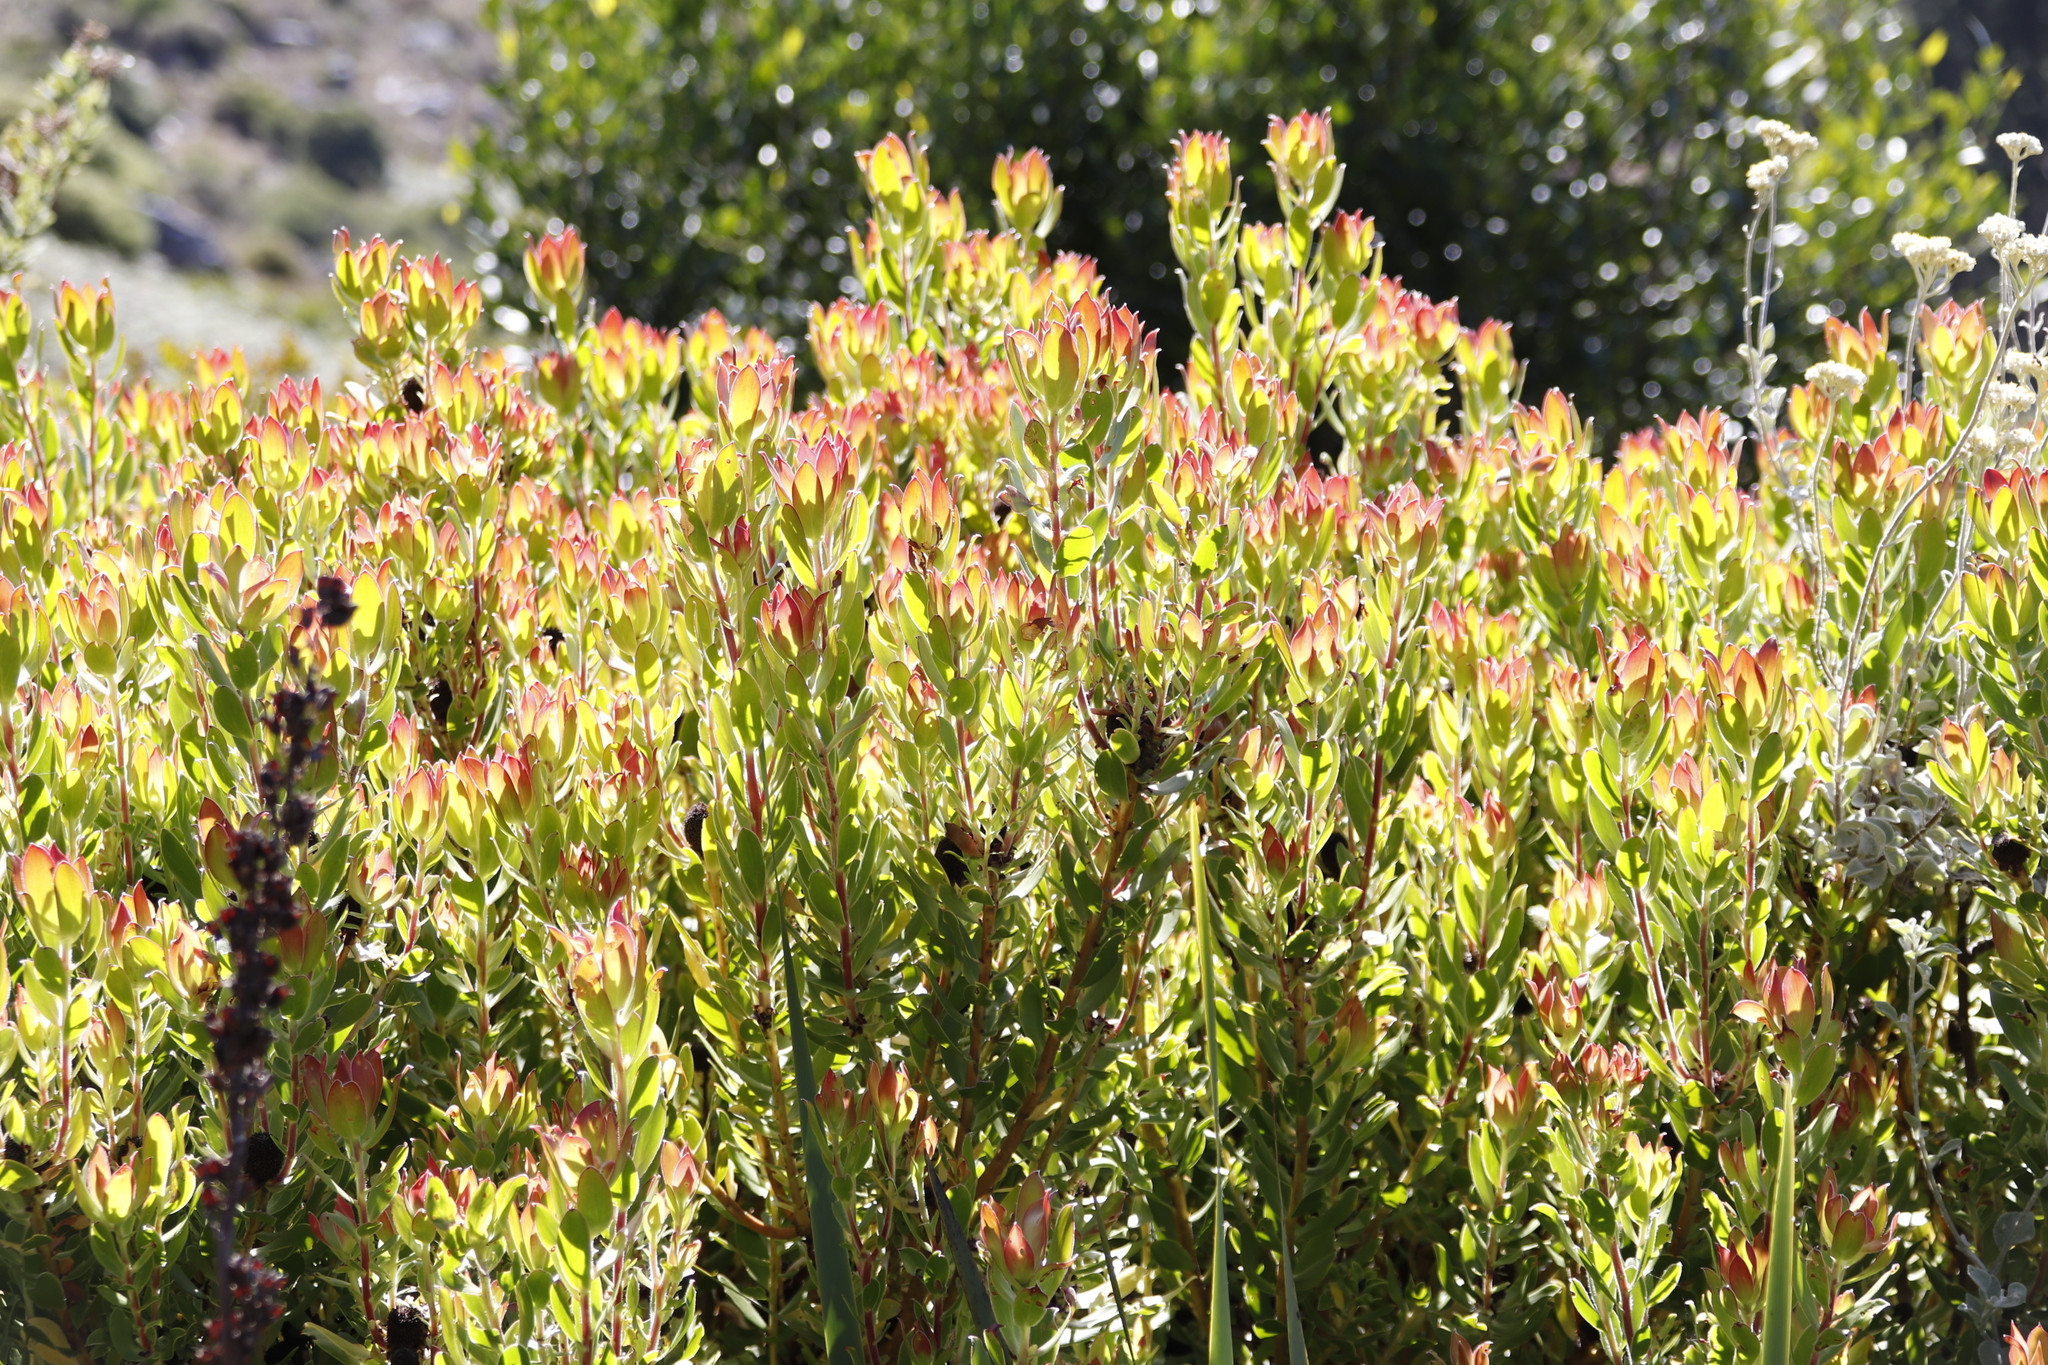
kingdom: Plantae
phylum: Tracheophyta
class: Magnoliopsida
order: Proteales
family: Proteaceae
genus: Leucadendron
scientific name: Leucadendron strobilinum
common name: Mountain rose
